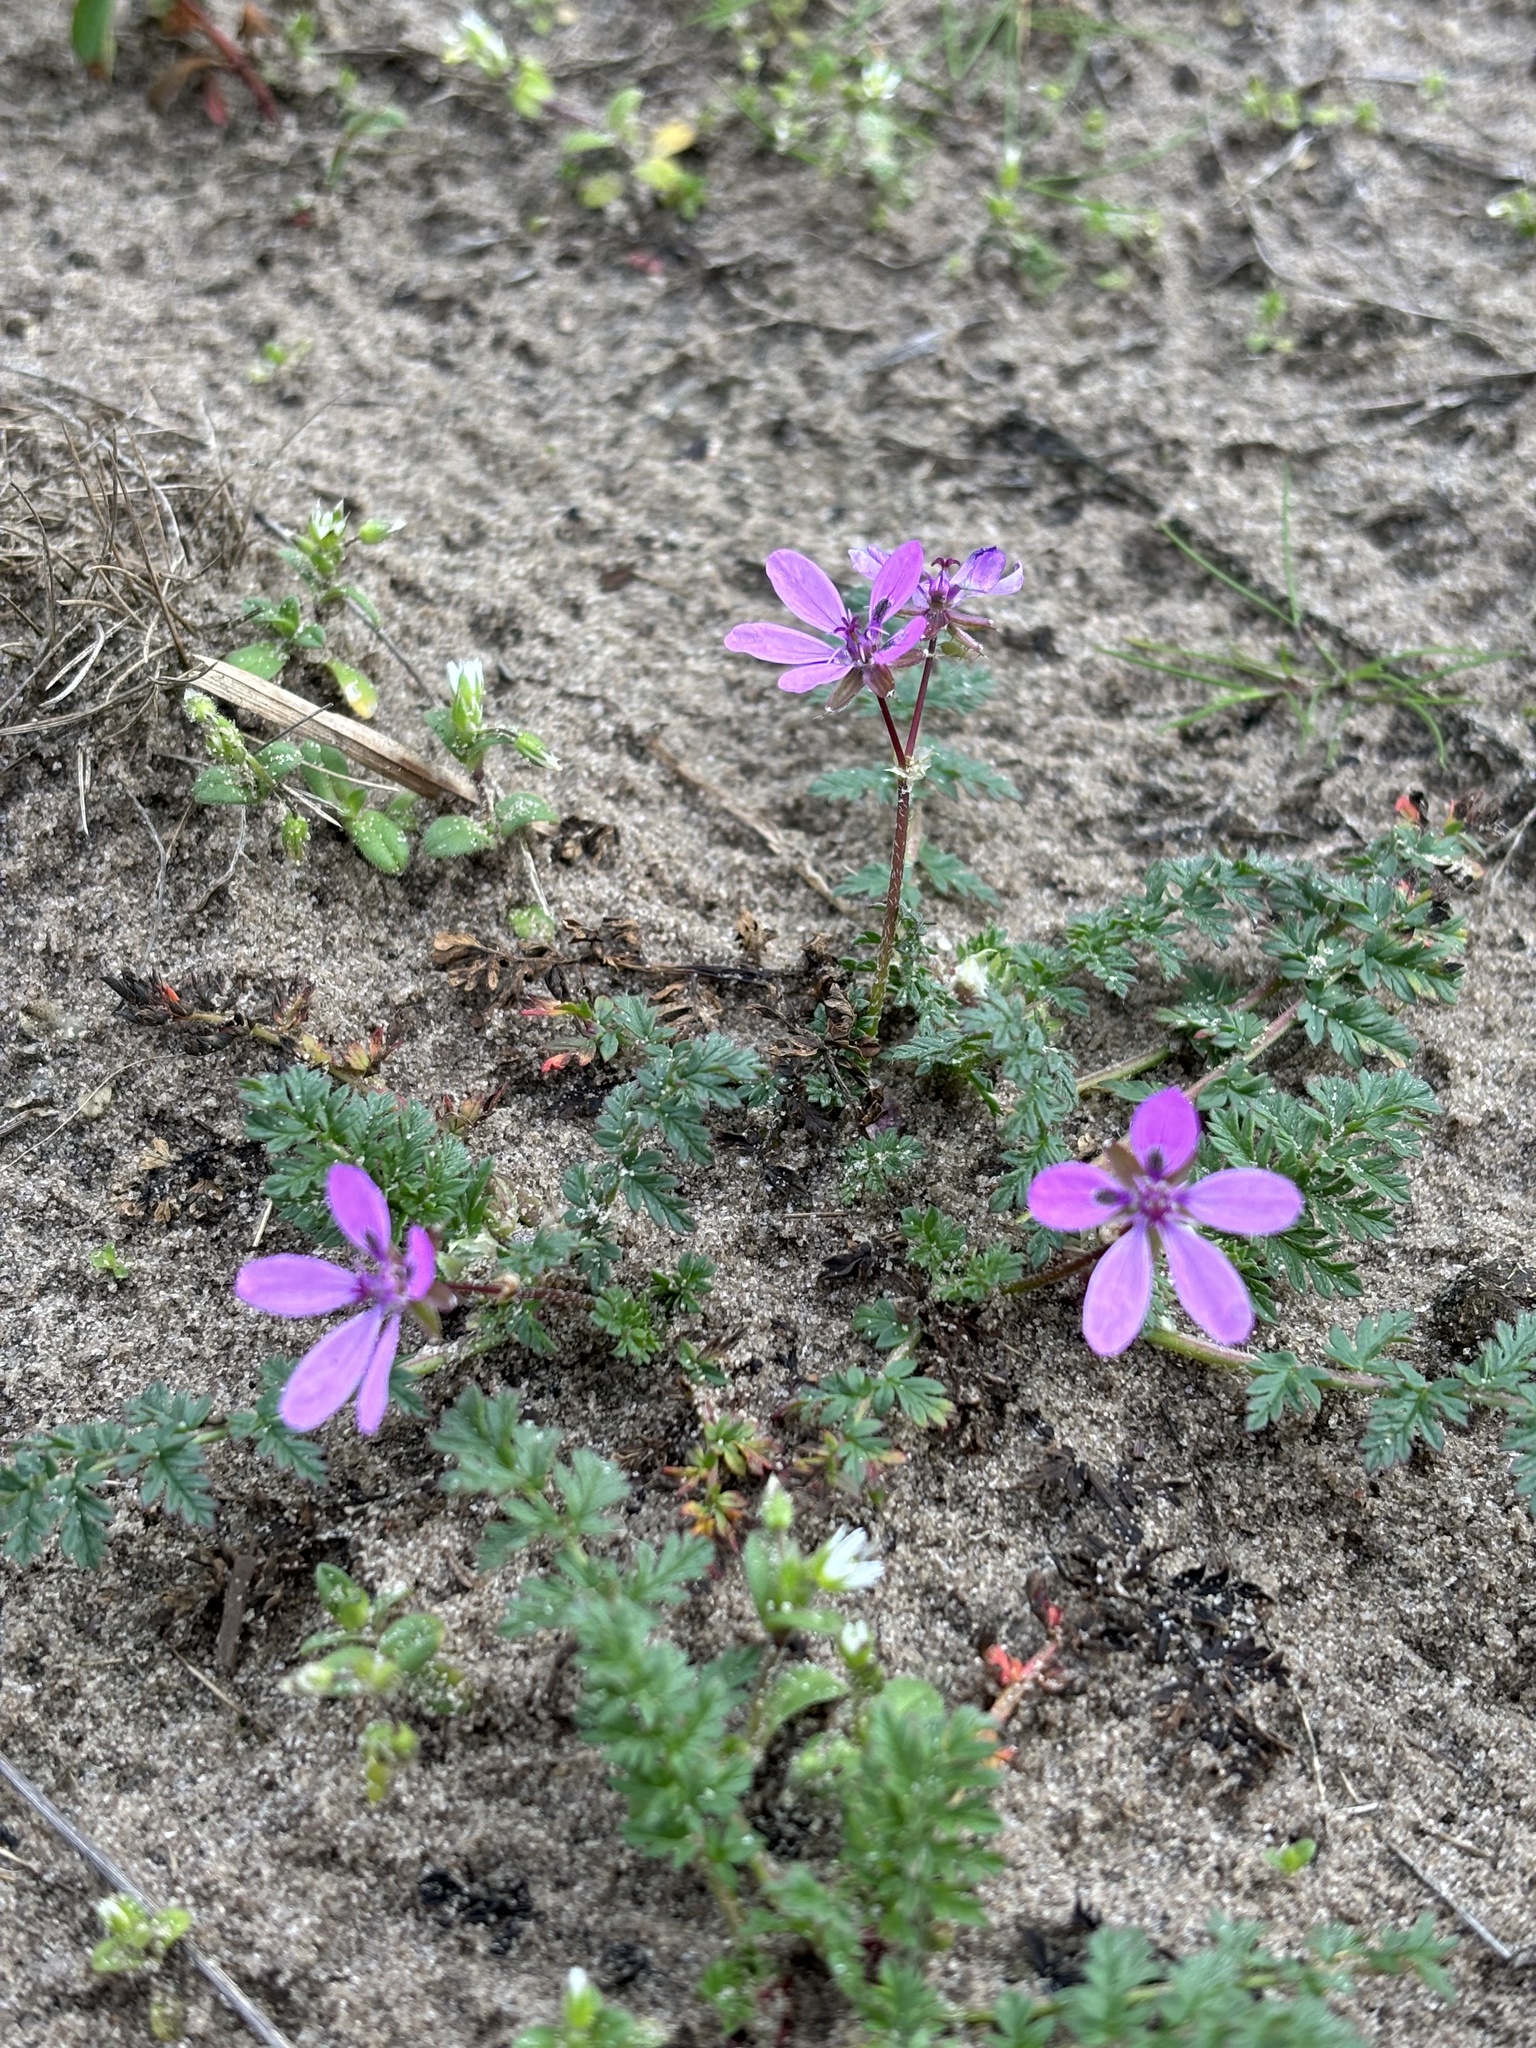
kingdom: Plantae
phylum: Tracheophyta
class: Magnoliopsida
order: Geraniales
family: Geraniaceae
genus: Erodium
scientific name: Erodium cicutarium
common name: Common stork's-bill
